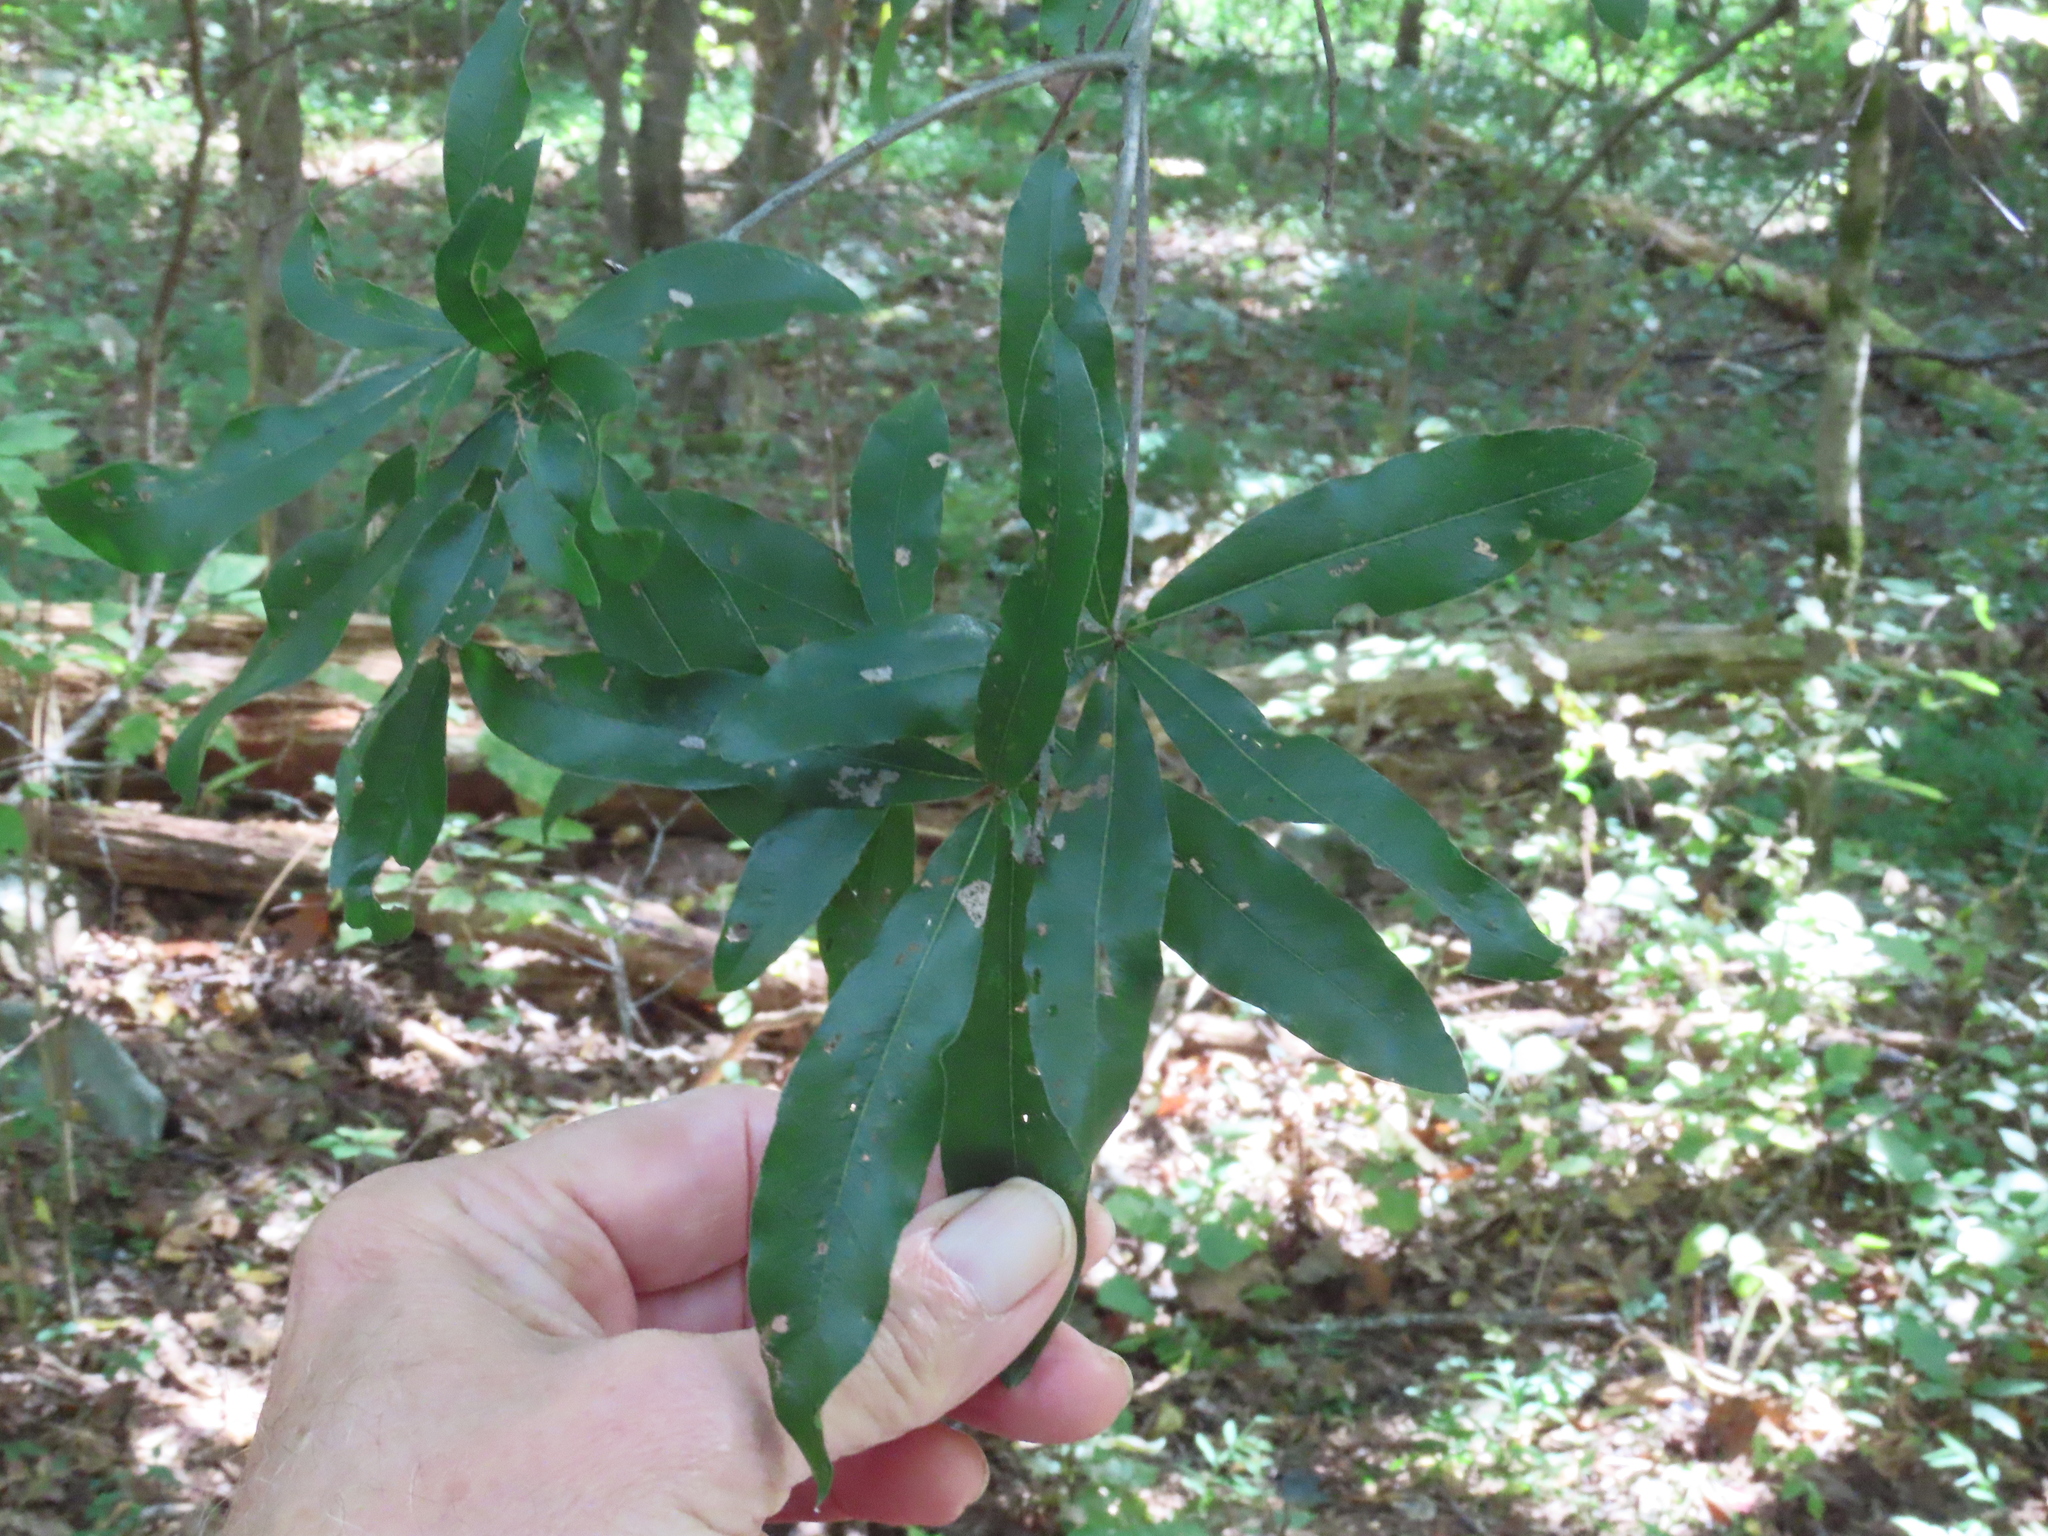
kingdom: Plantae
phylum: Tracheophyta
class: Magnoliopsida
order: Fagales
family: Fagaceae
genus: Quercus
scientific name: Quercus phellos
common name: Willow oak
